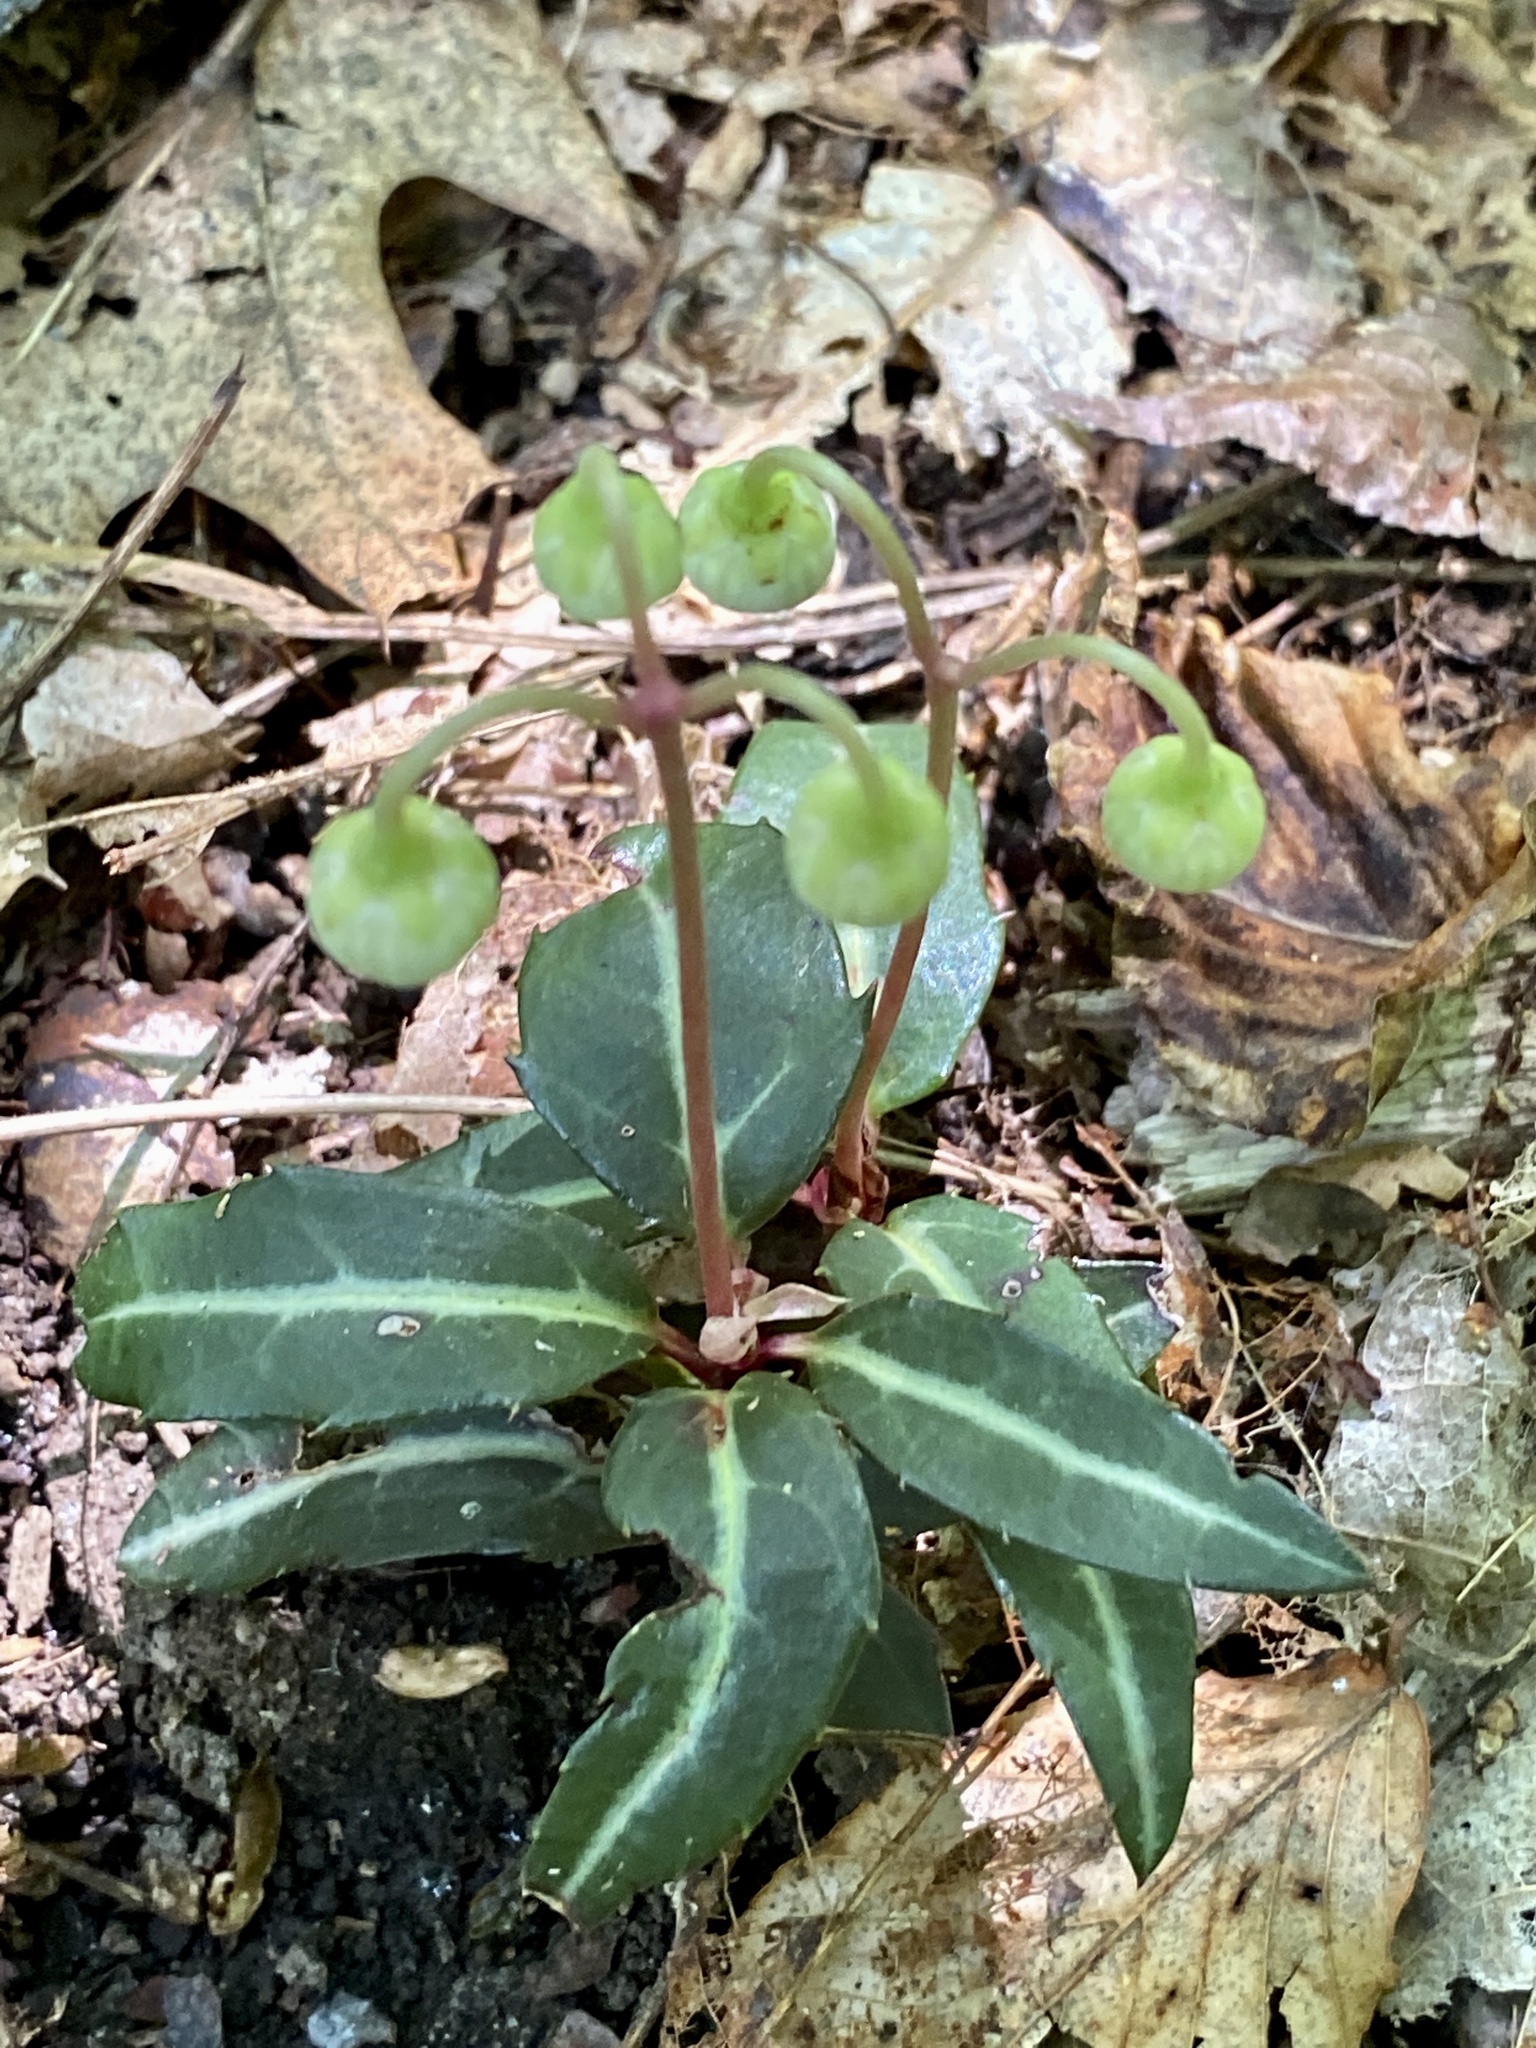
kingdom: Plantae
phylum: Tracheophyta
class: Magnoliopsida
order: Ericales
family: Ericaceae
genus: Chimaphila
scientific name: Chimaphila maculata
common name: Spotted pipsissewa
